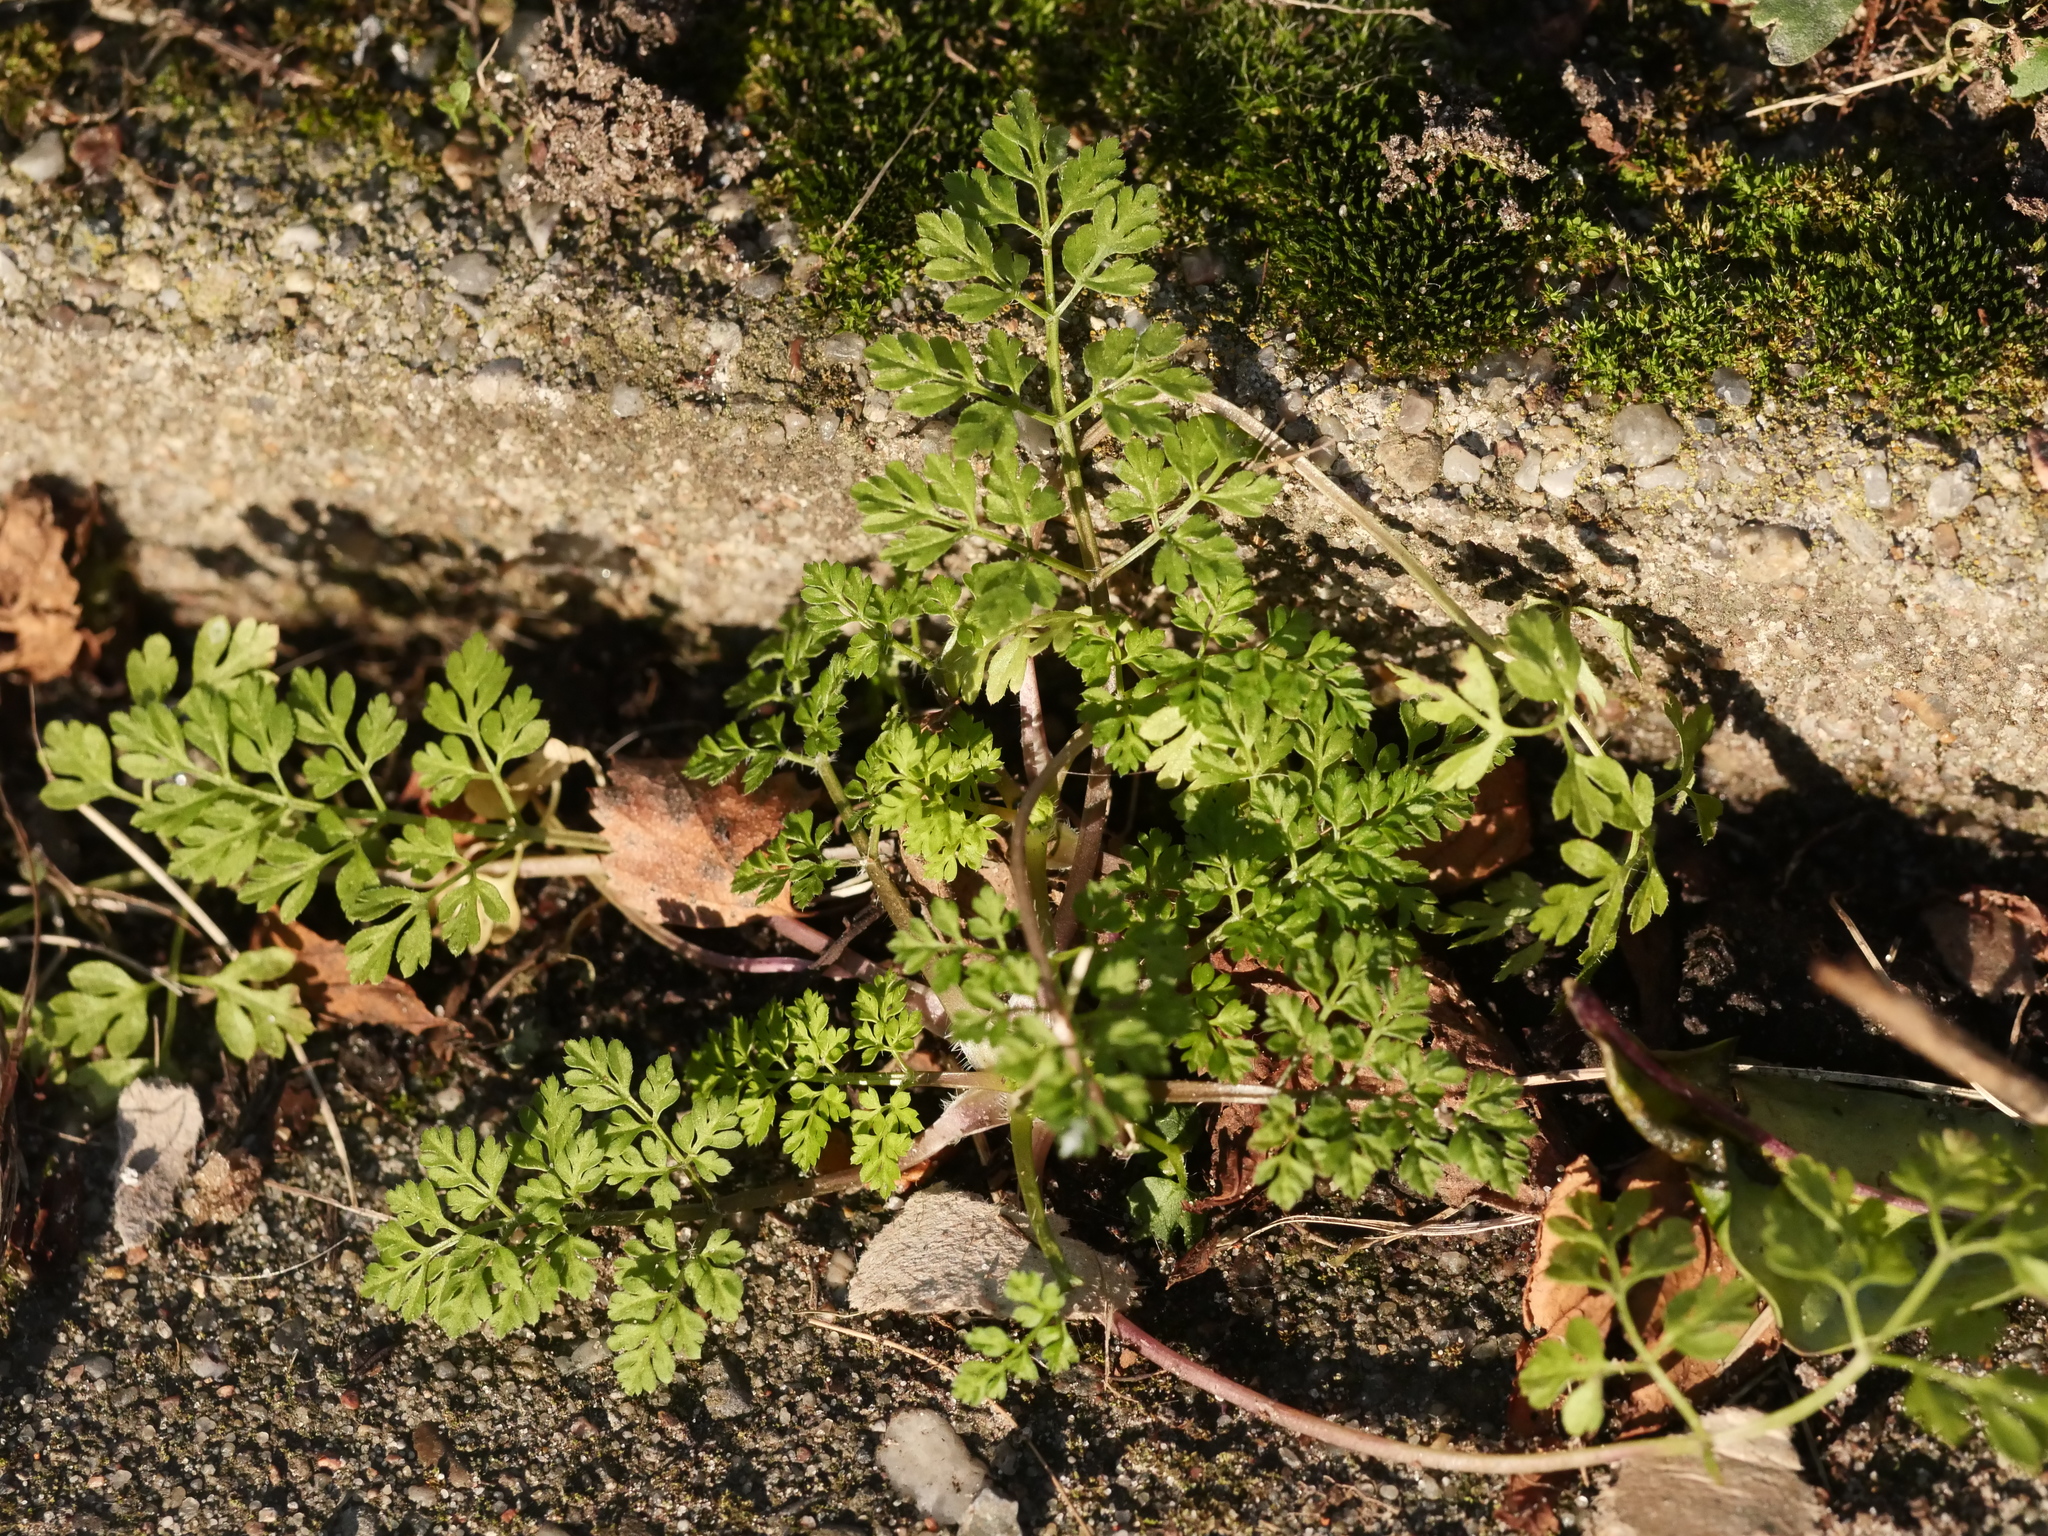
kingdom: Plantae
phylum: Tracheophyta
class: Magnoliopsida
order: Apiales
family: Apiaceae
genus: Anthriscus
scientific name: Anthriscus caucalis
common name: Bur chervil
